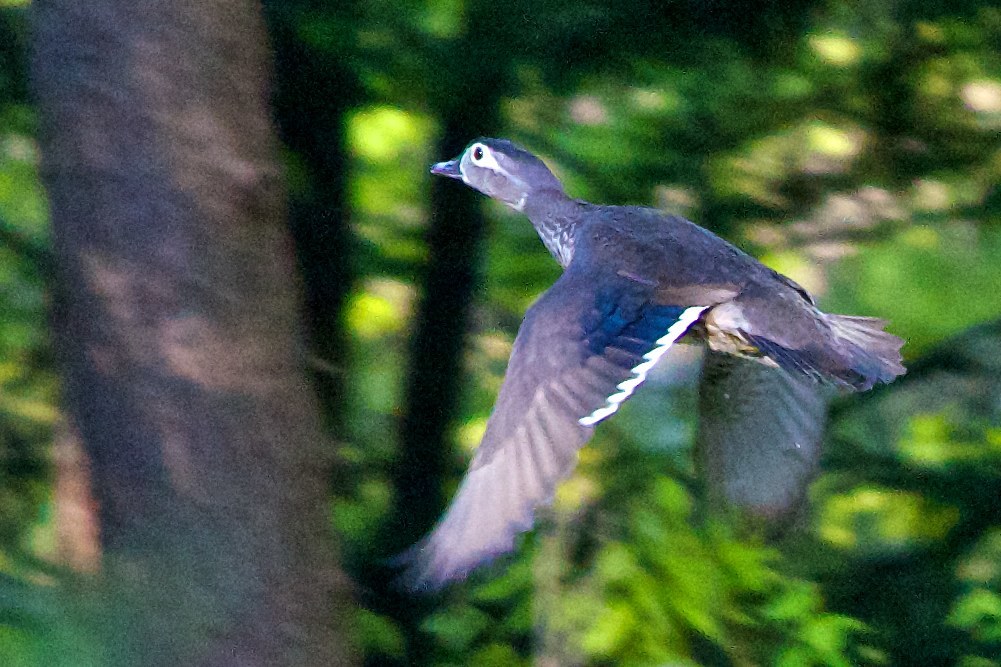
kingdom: Animalia
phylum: Chordata
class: Aves
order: Anseriformes
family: Anatidae
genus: Aix
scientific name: Aix sponsa
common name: Wood duck
